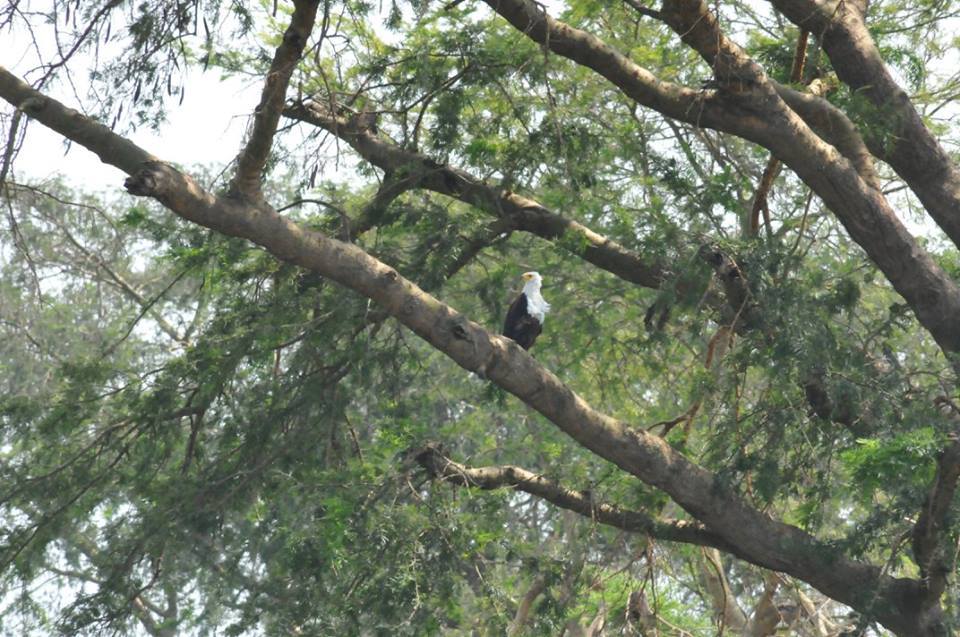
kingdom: Animalia
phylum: Chordata
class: Aves
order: Accipitriformes
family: Accipitridae
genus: Haliaeetus
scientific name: Haliaeetus vocifer
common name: African fish eagle
